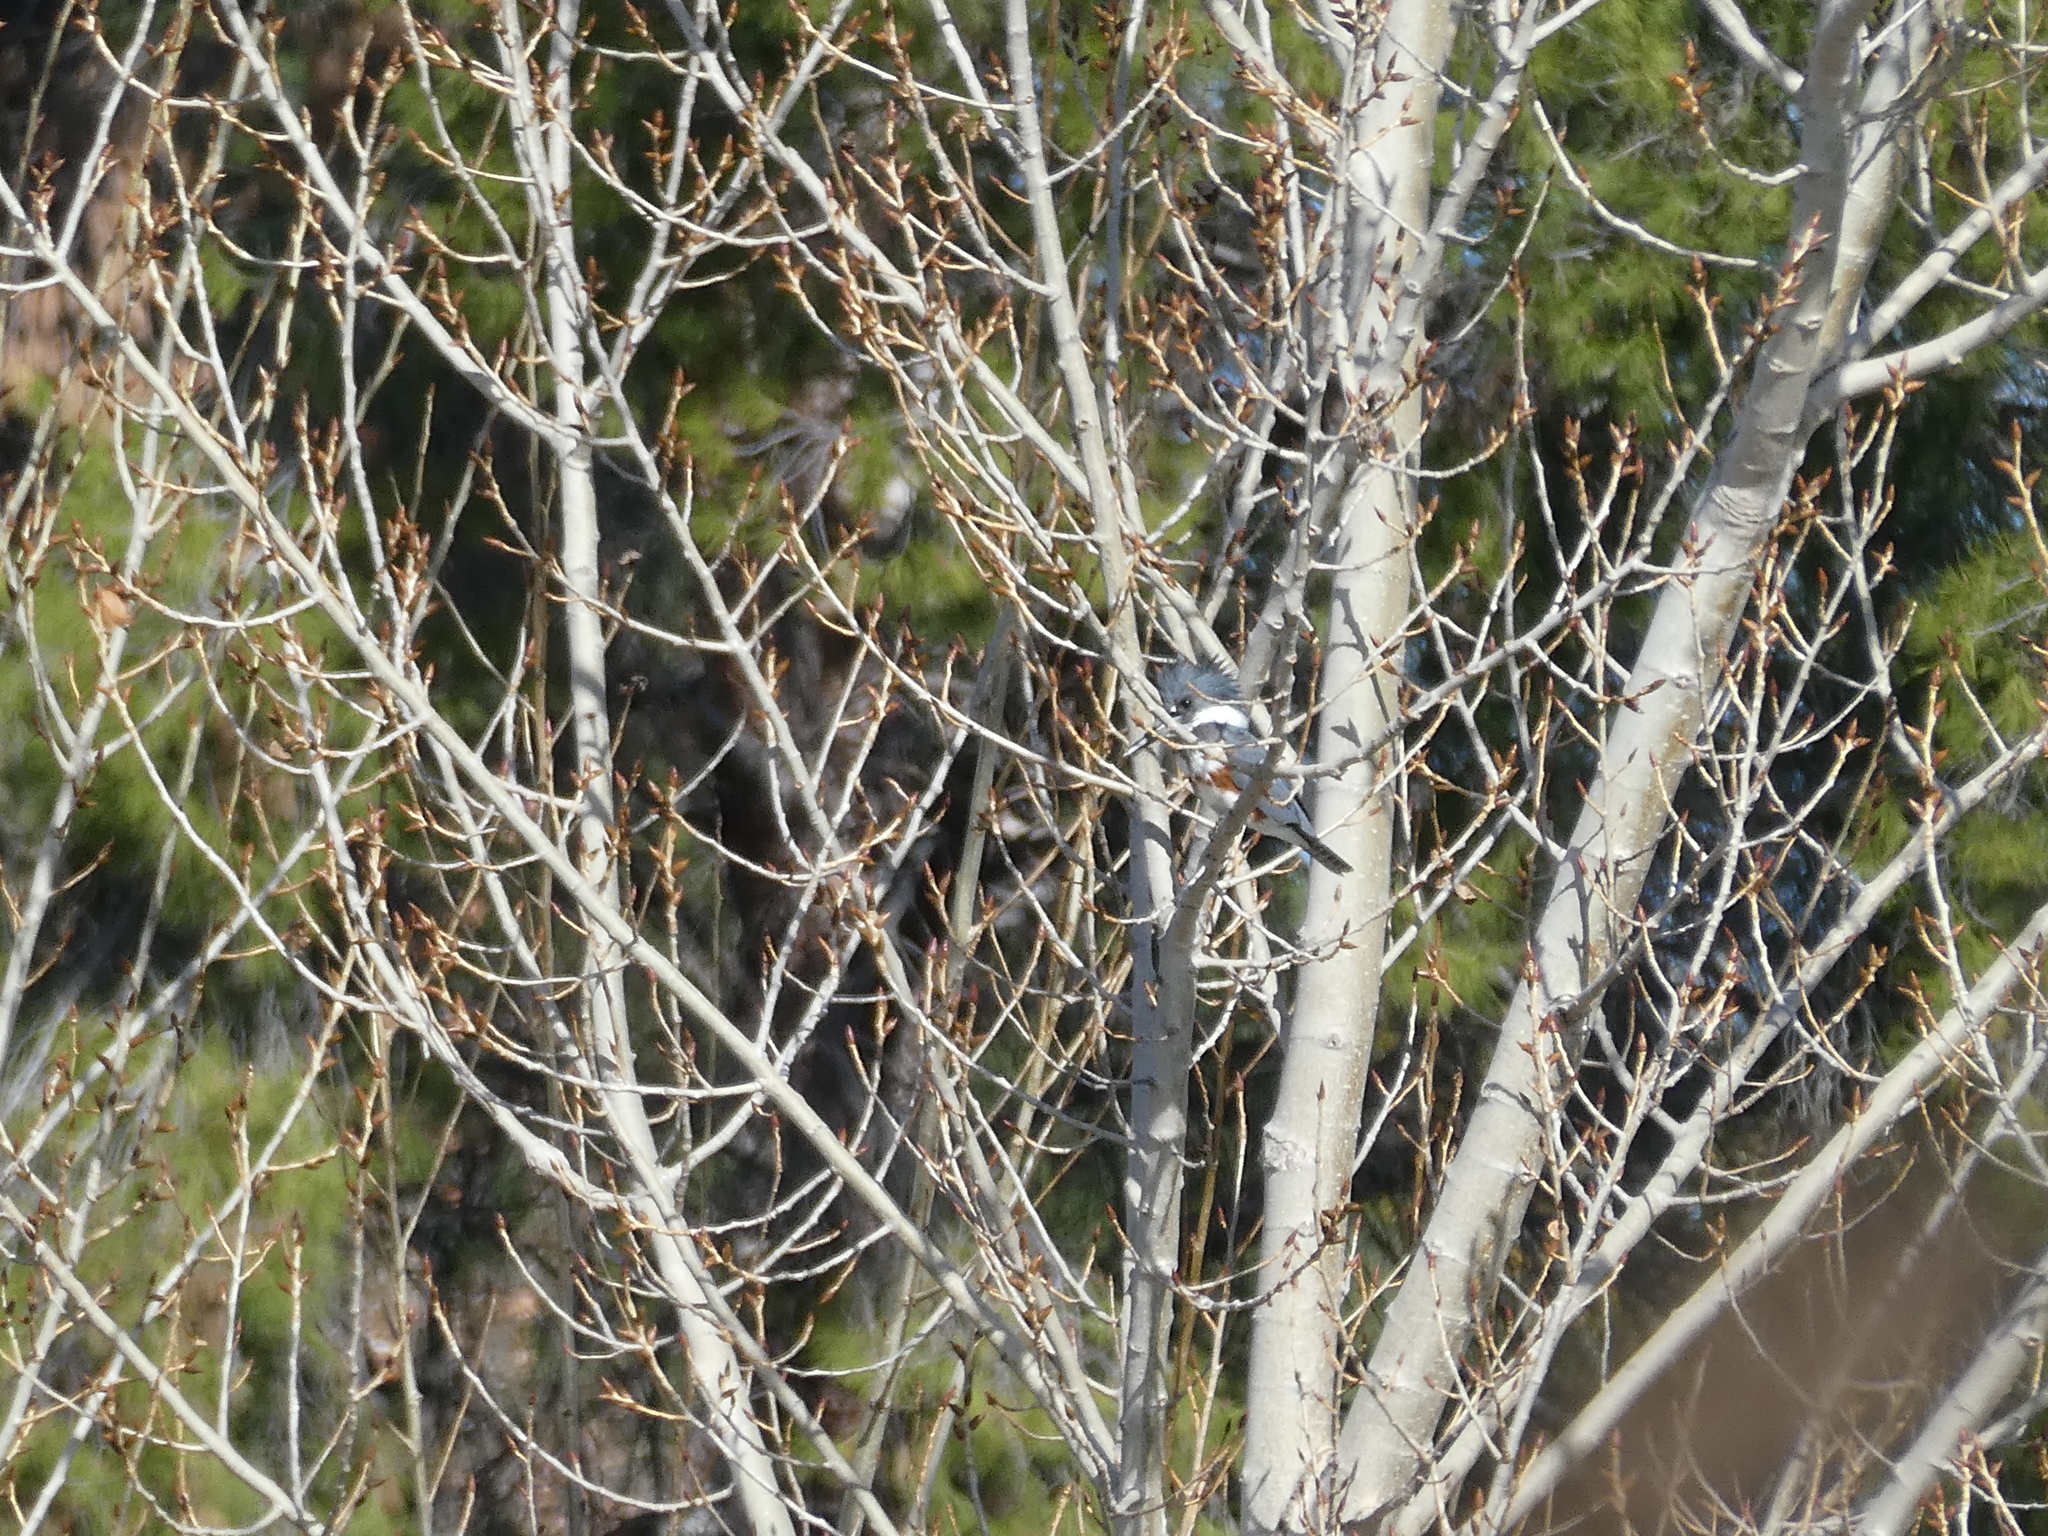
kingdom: Animalia
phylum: Chordata
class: Aves
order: Coraciiformes
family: Alcedinidae
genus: Megaceryle
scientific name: Megaceryle alcyon
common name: Belted kingfisher
